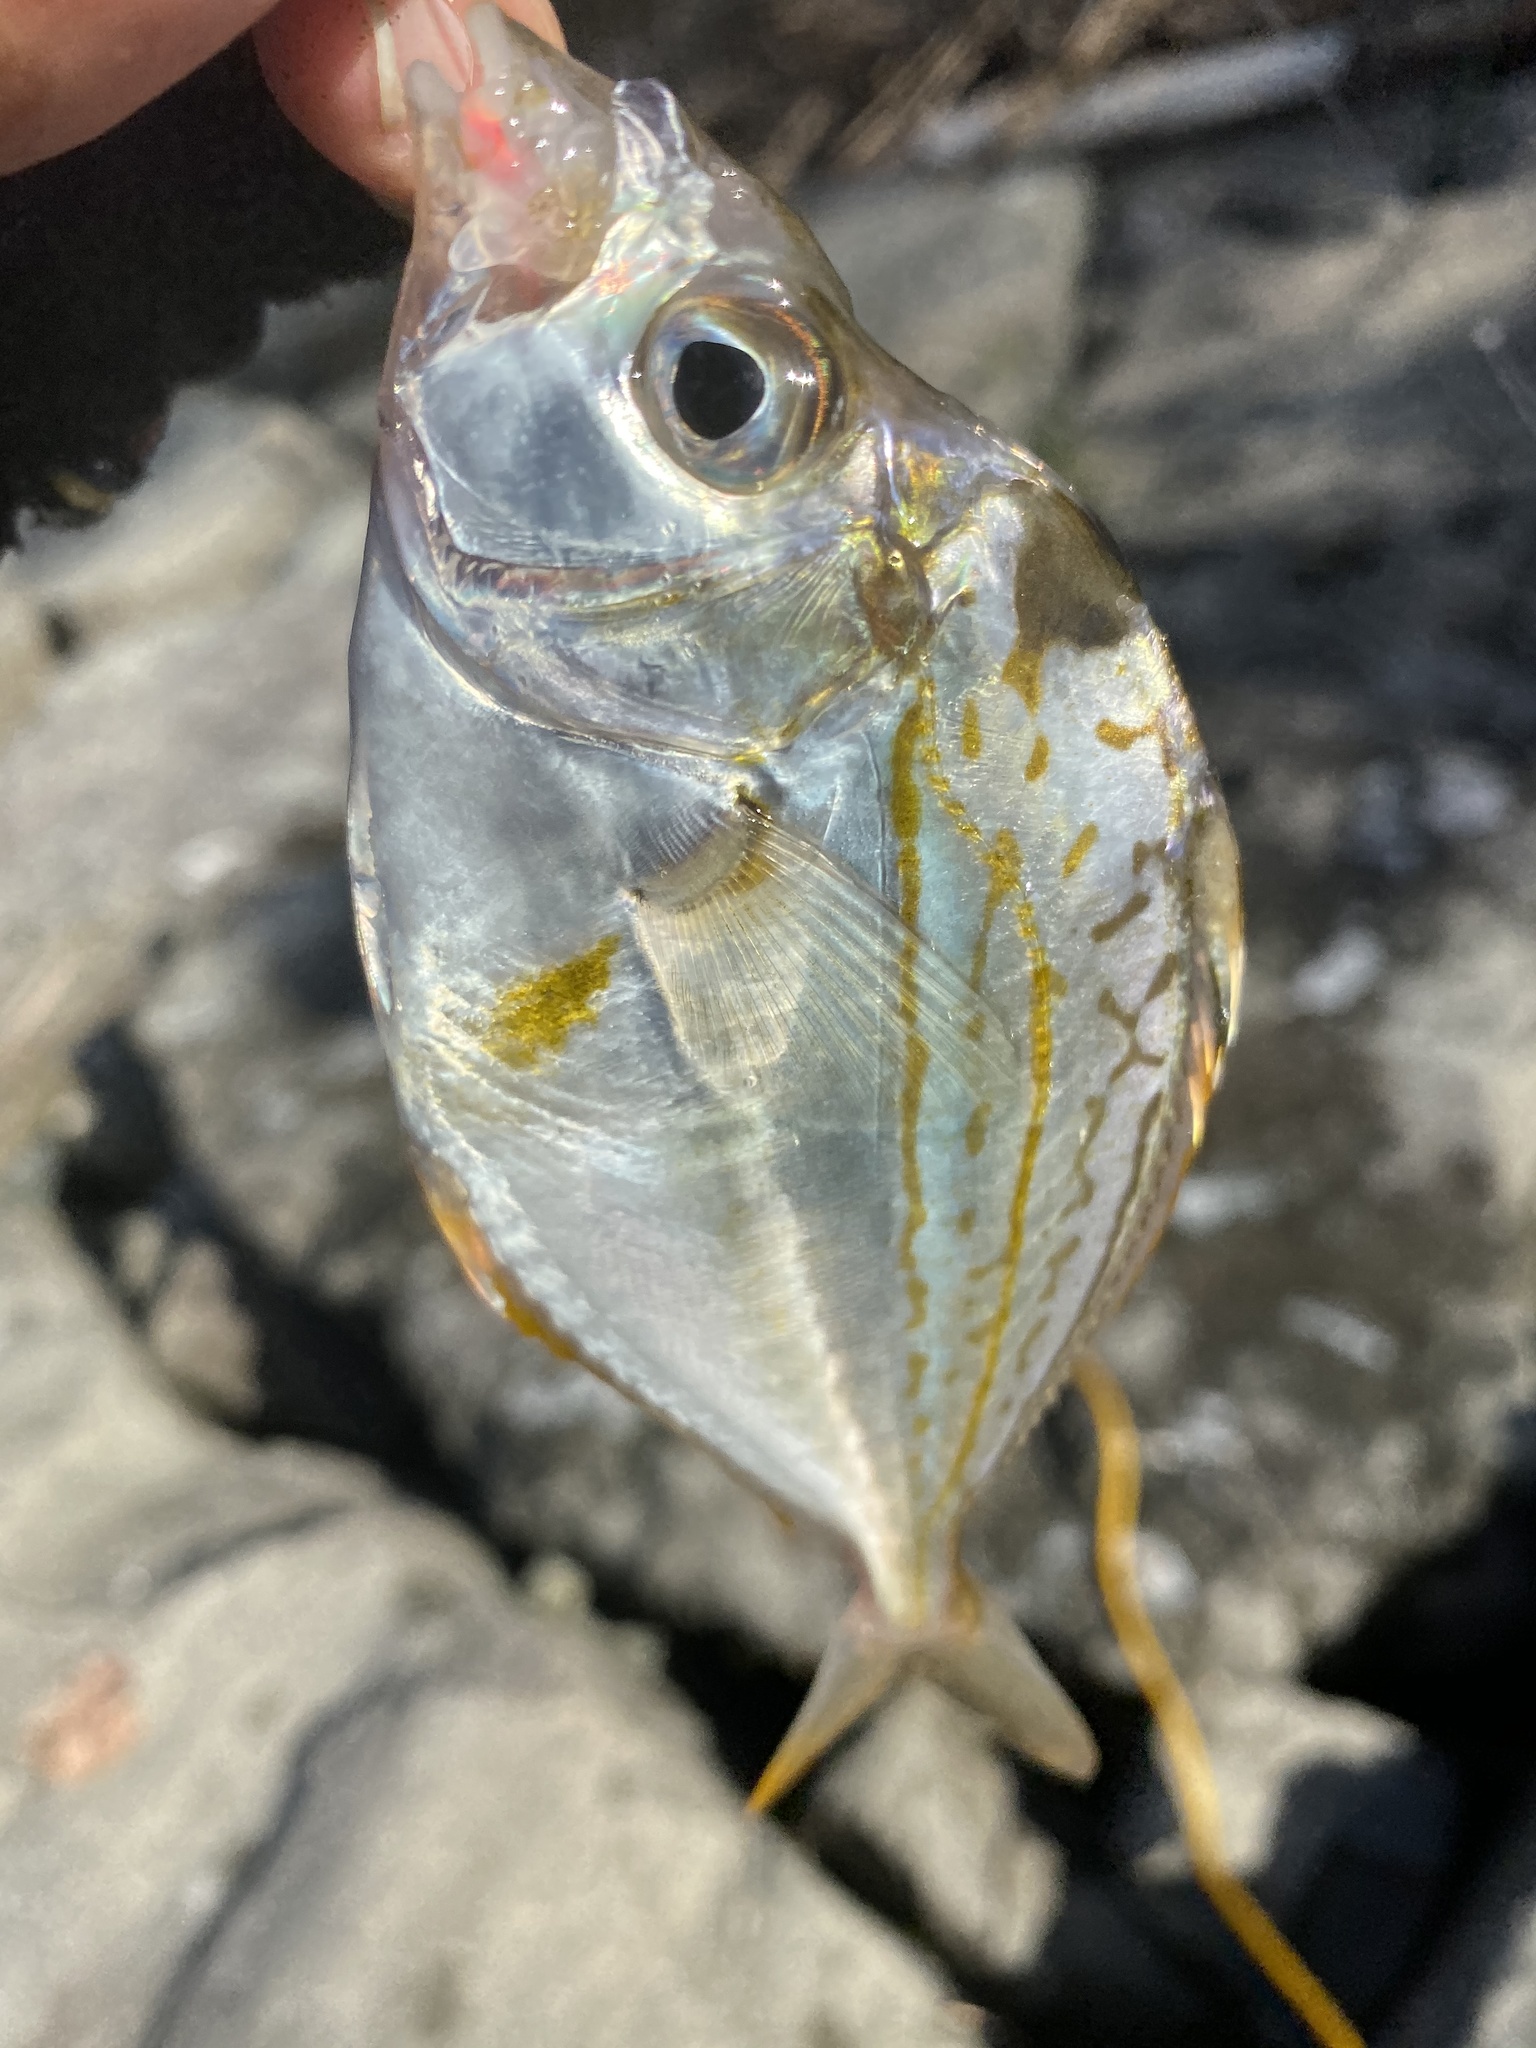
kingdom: Animalia
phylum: Chordata
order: Perciformes
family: Leiognathidae
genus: Nuchequula
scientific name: Nuchequula nuchalis
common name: Spotnape ponyfish
